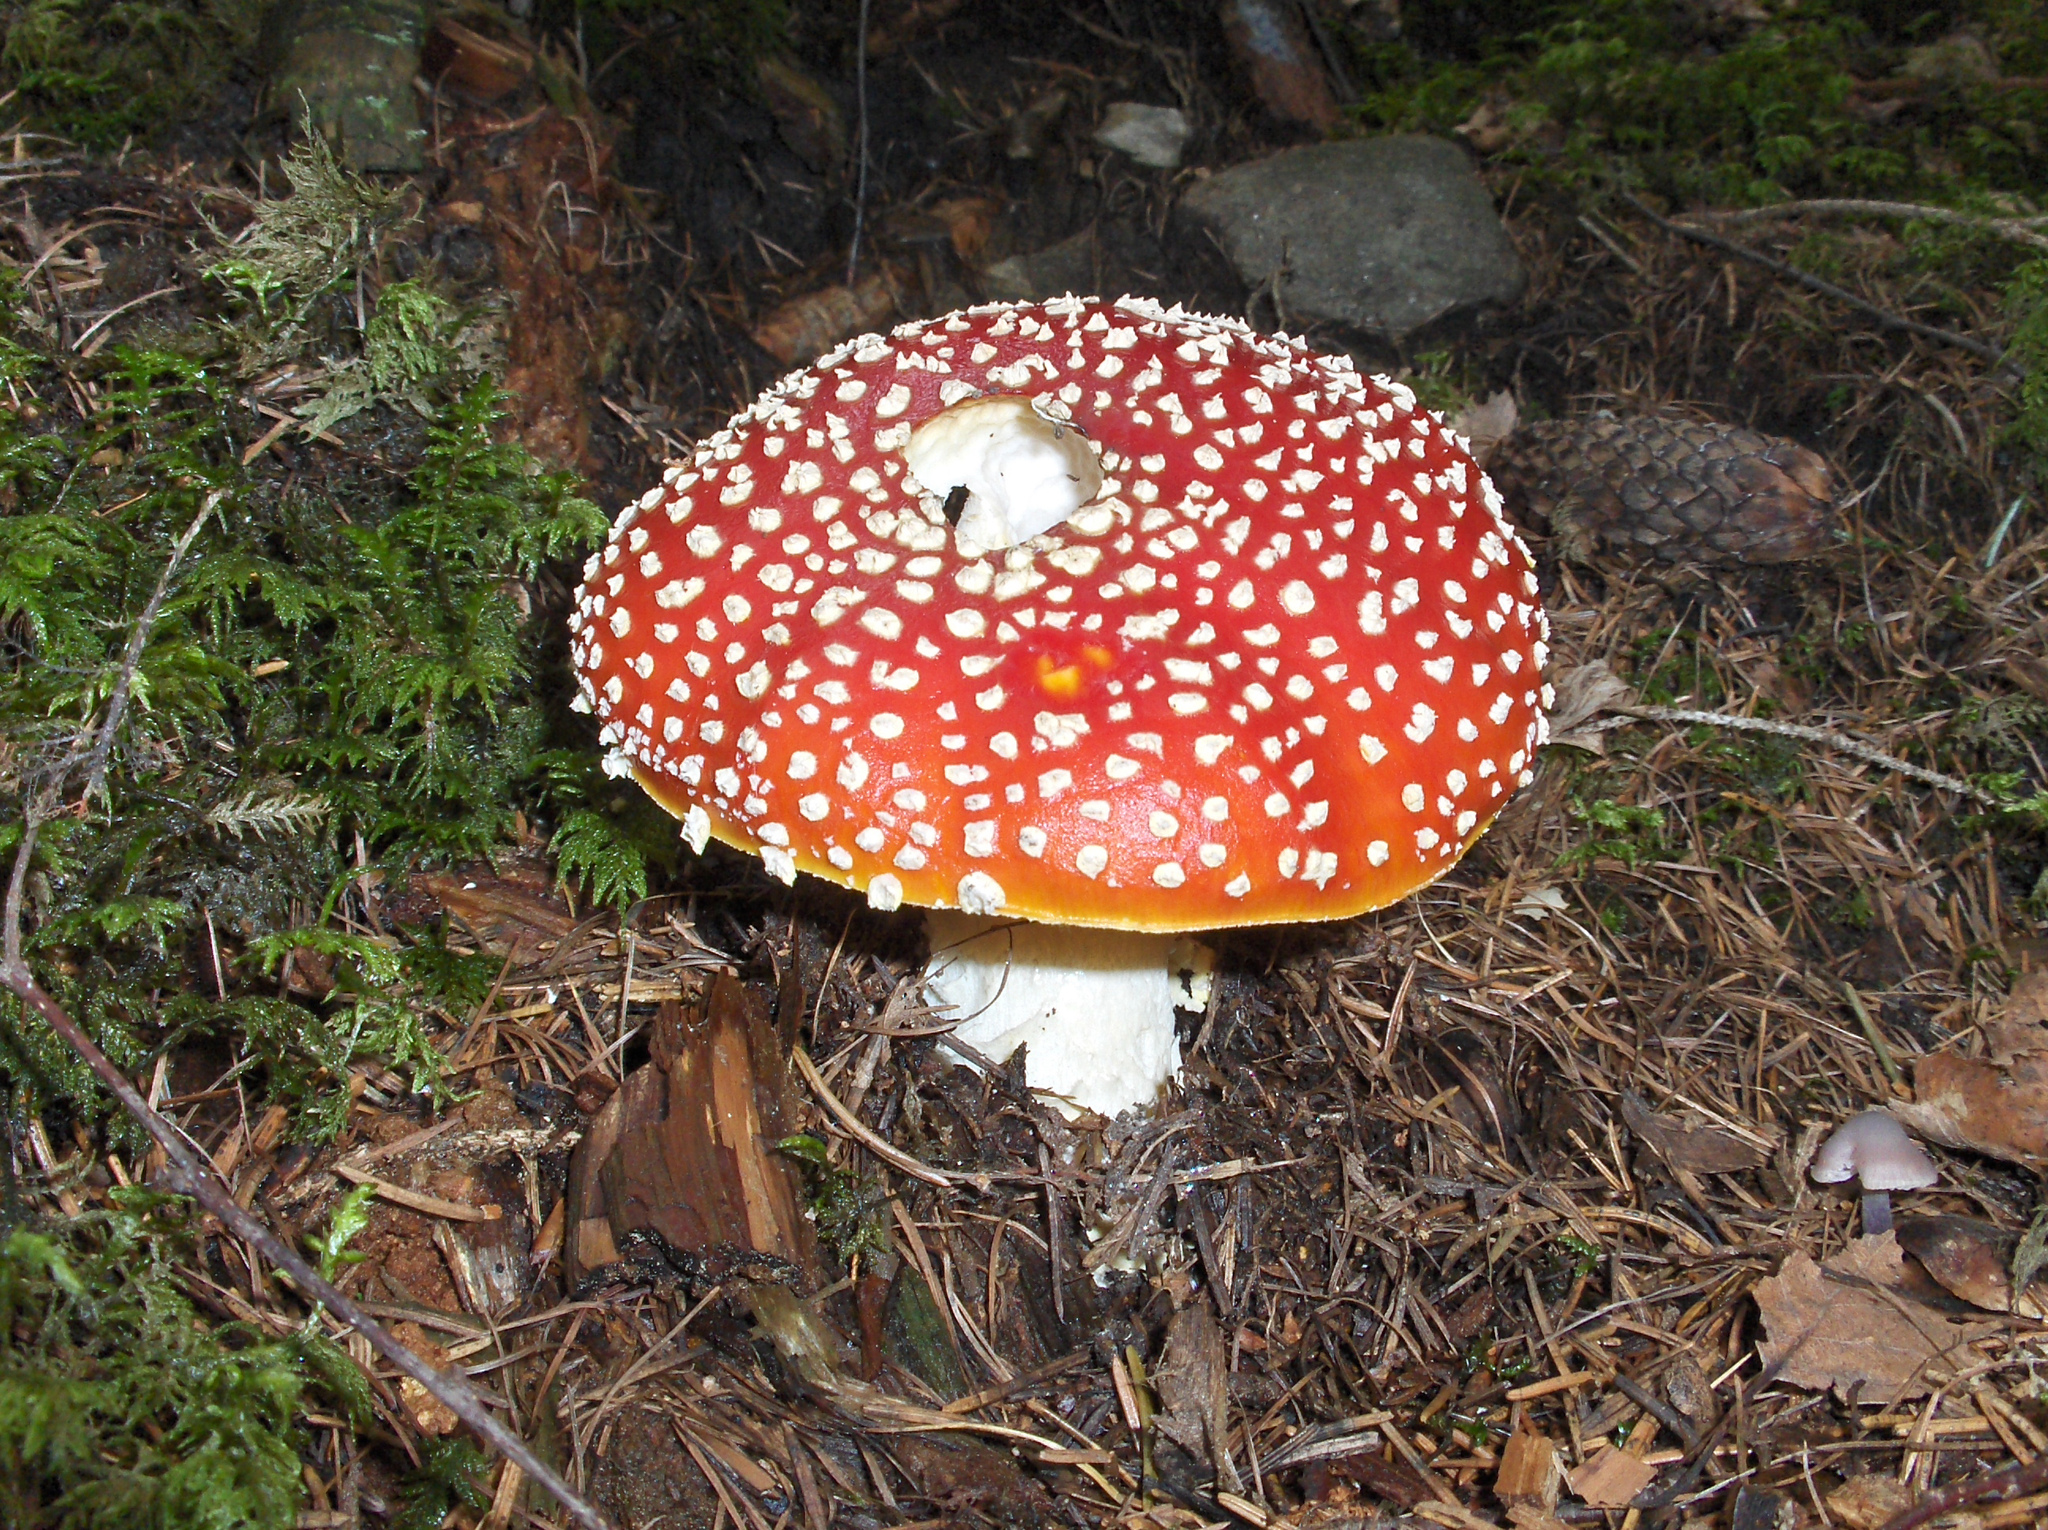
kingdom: Fungi
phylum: Basidiomycota
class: Agaricomycetes
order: Agaricales
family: Amanitaceae
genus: Amanita
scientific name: Amanita muscaria
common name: Fly agaric
